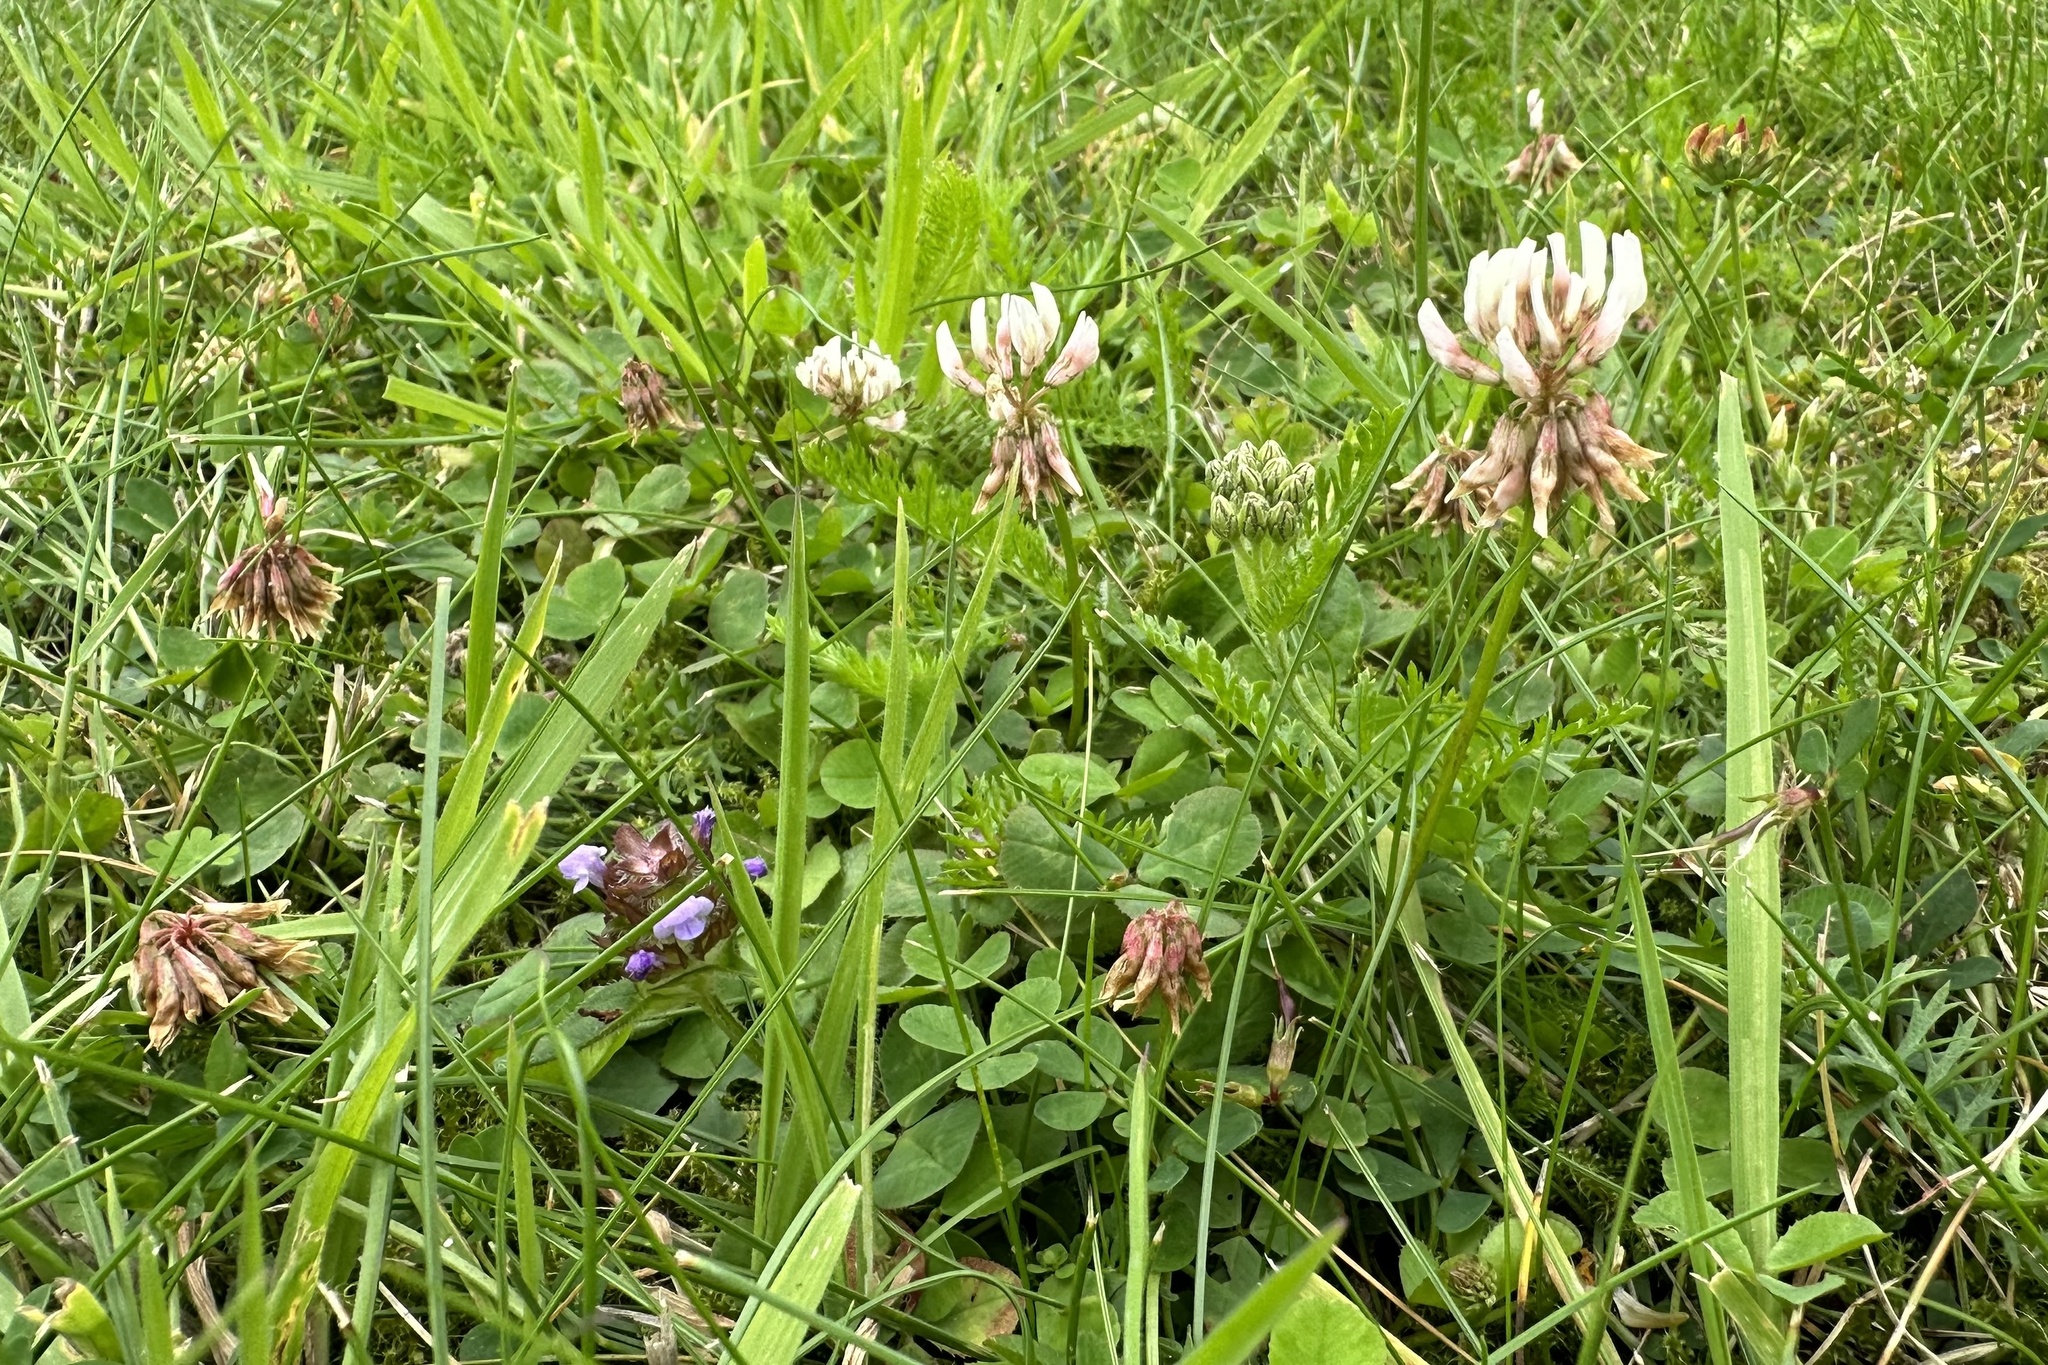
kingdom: Plantae
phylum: Tracheophyta
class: Magnoliopsida
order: Fabales
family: Fabaceae
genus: Trifolium
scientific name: Trifolium repens
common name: White clover
